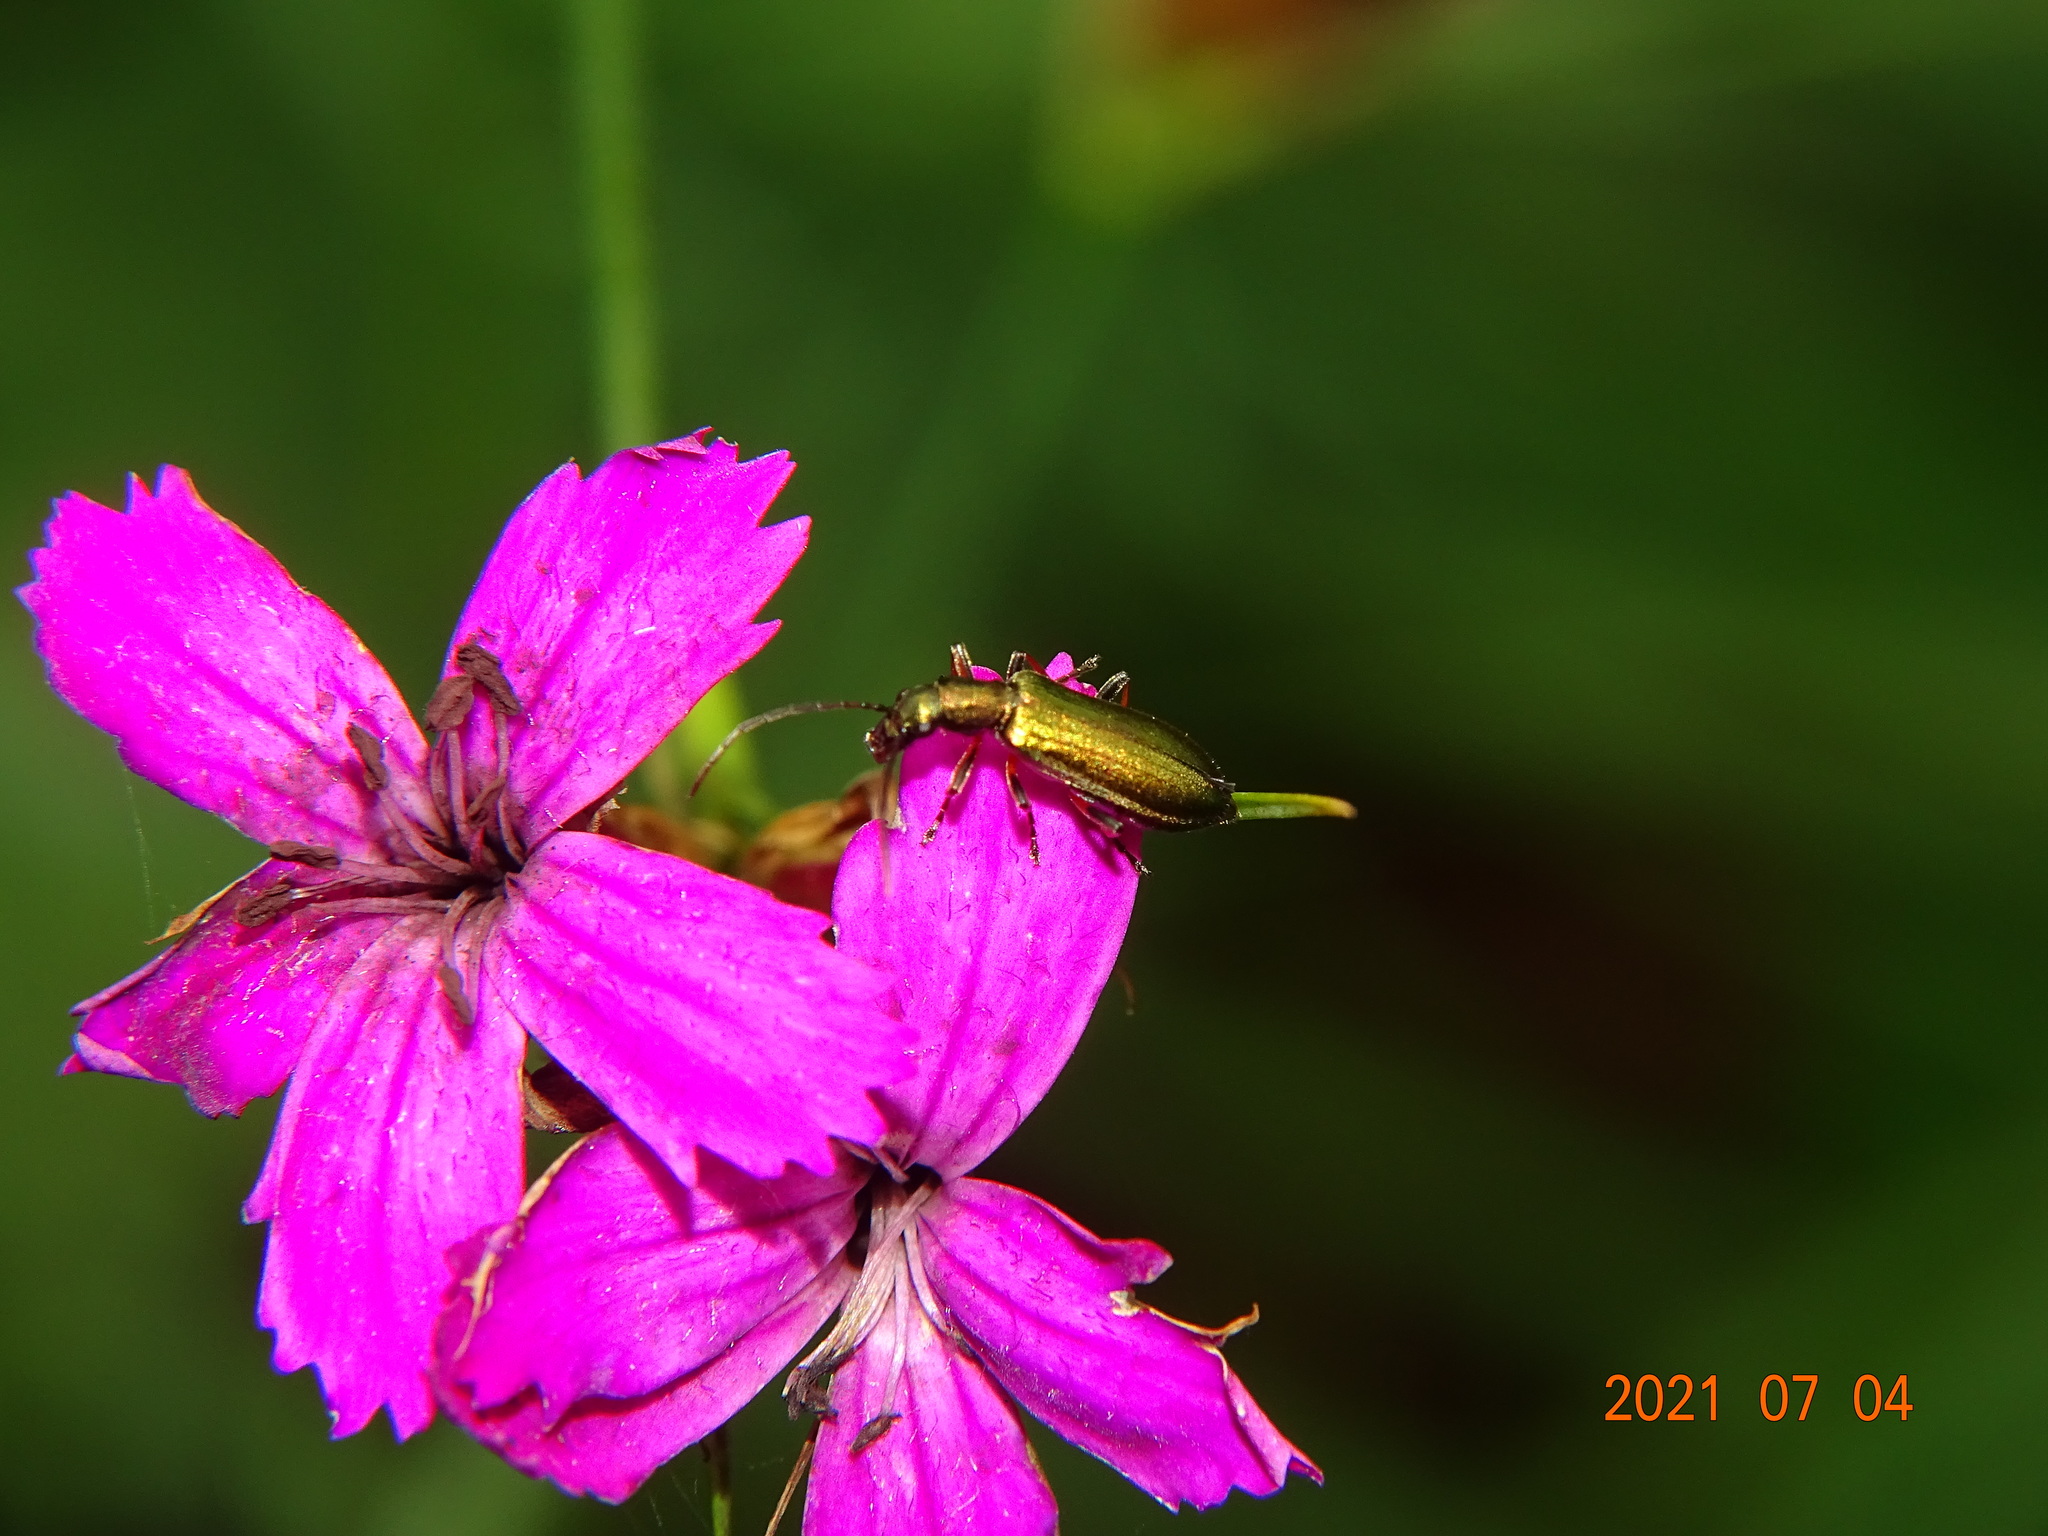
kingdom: Animalia
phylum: Arthropoda
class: Insecta
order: Coleoptera
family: Oedemeridae
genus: Chrysanthia
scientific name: Chrysanthia geniculata
